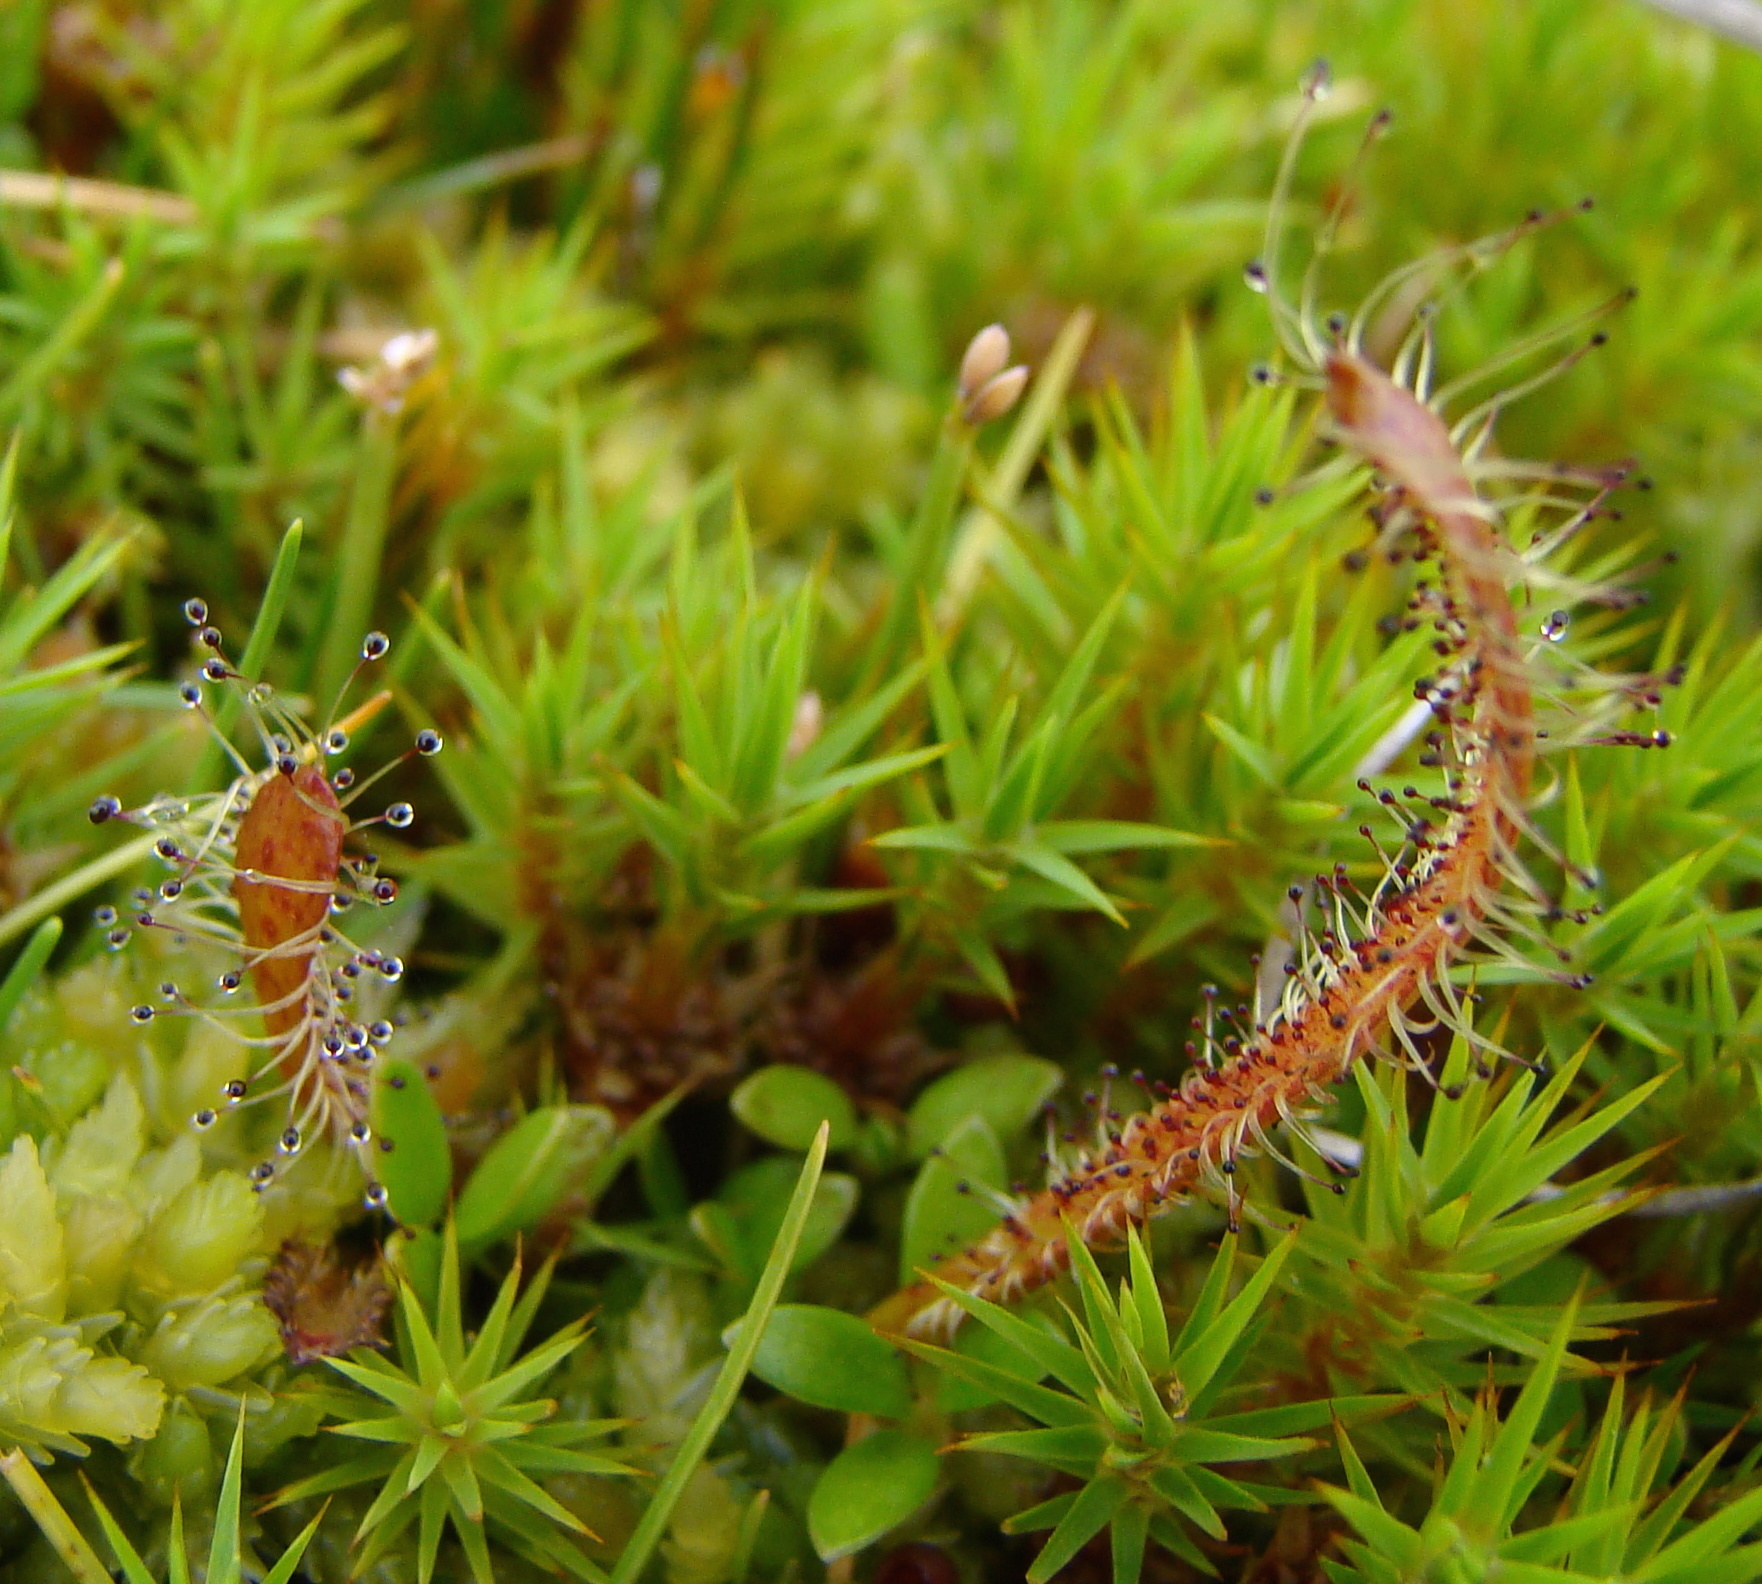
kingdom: Plantae
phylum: Tracheophyta
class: Magnoliopsida
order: Caryophyllales
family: Droseraceae
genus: Drosera
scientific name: Drosera arcturi
